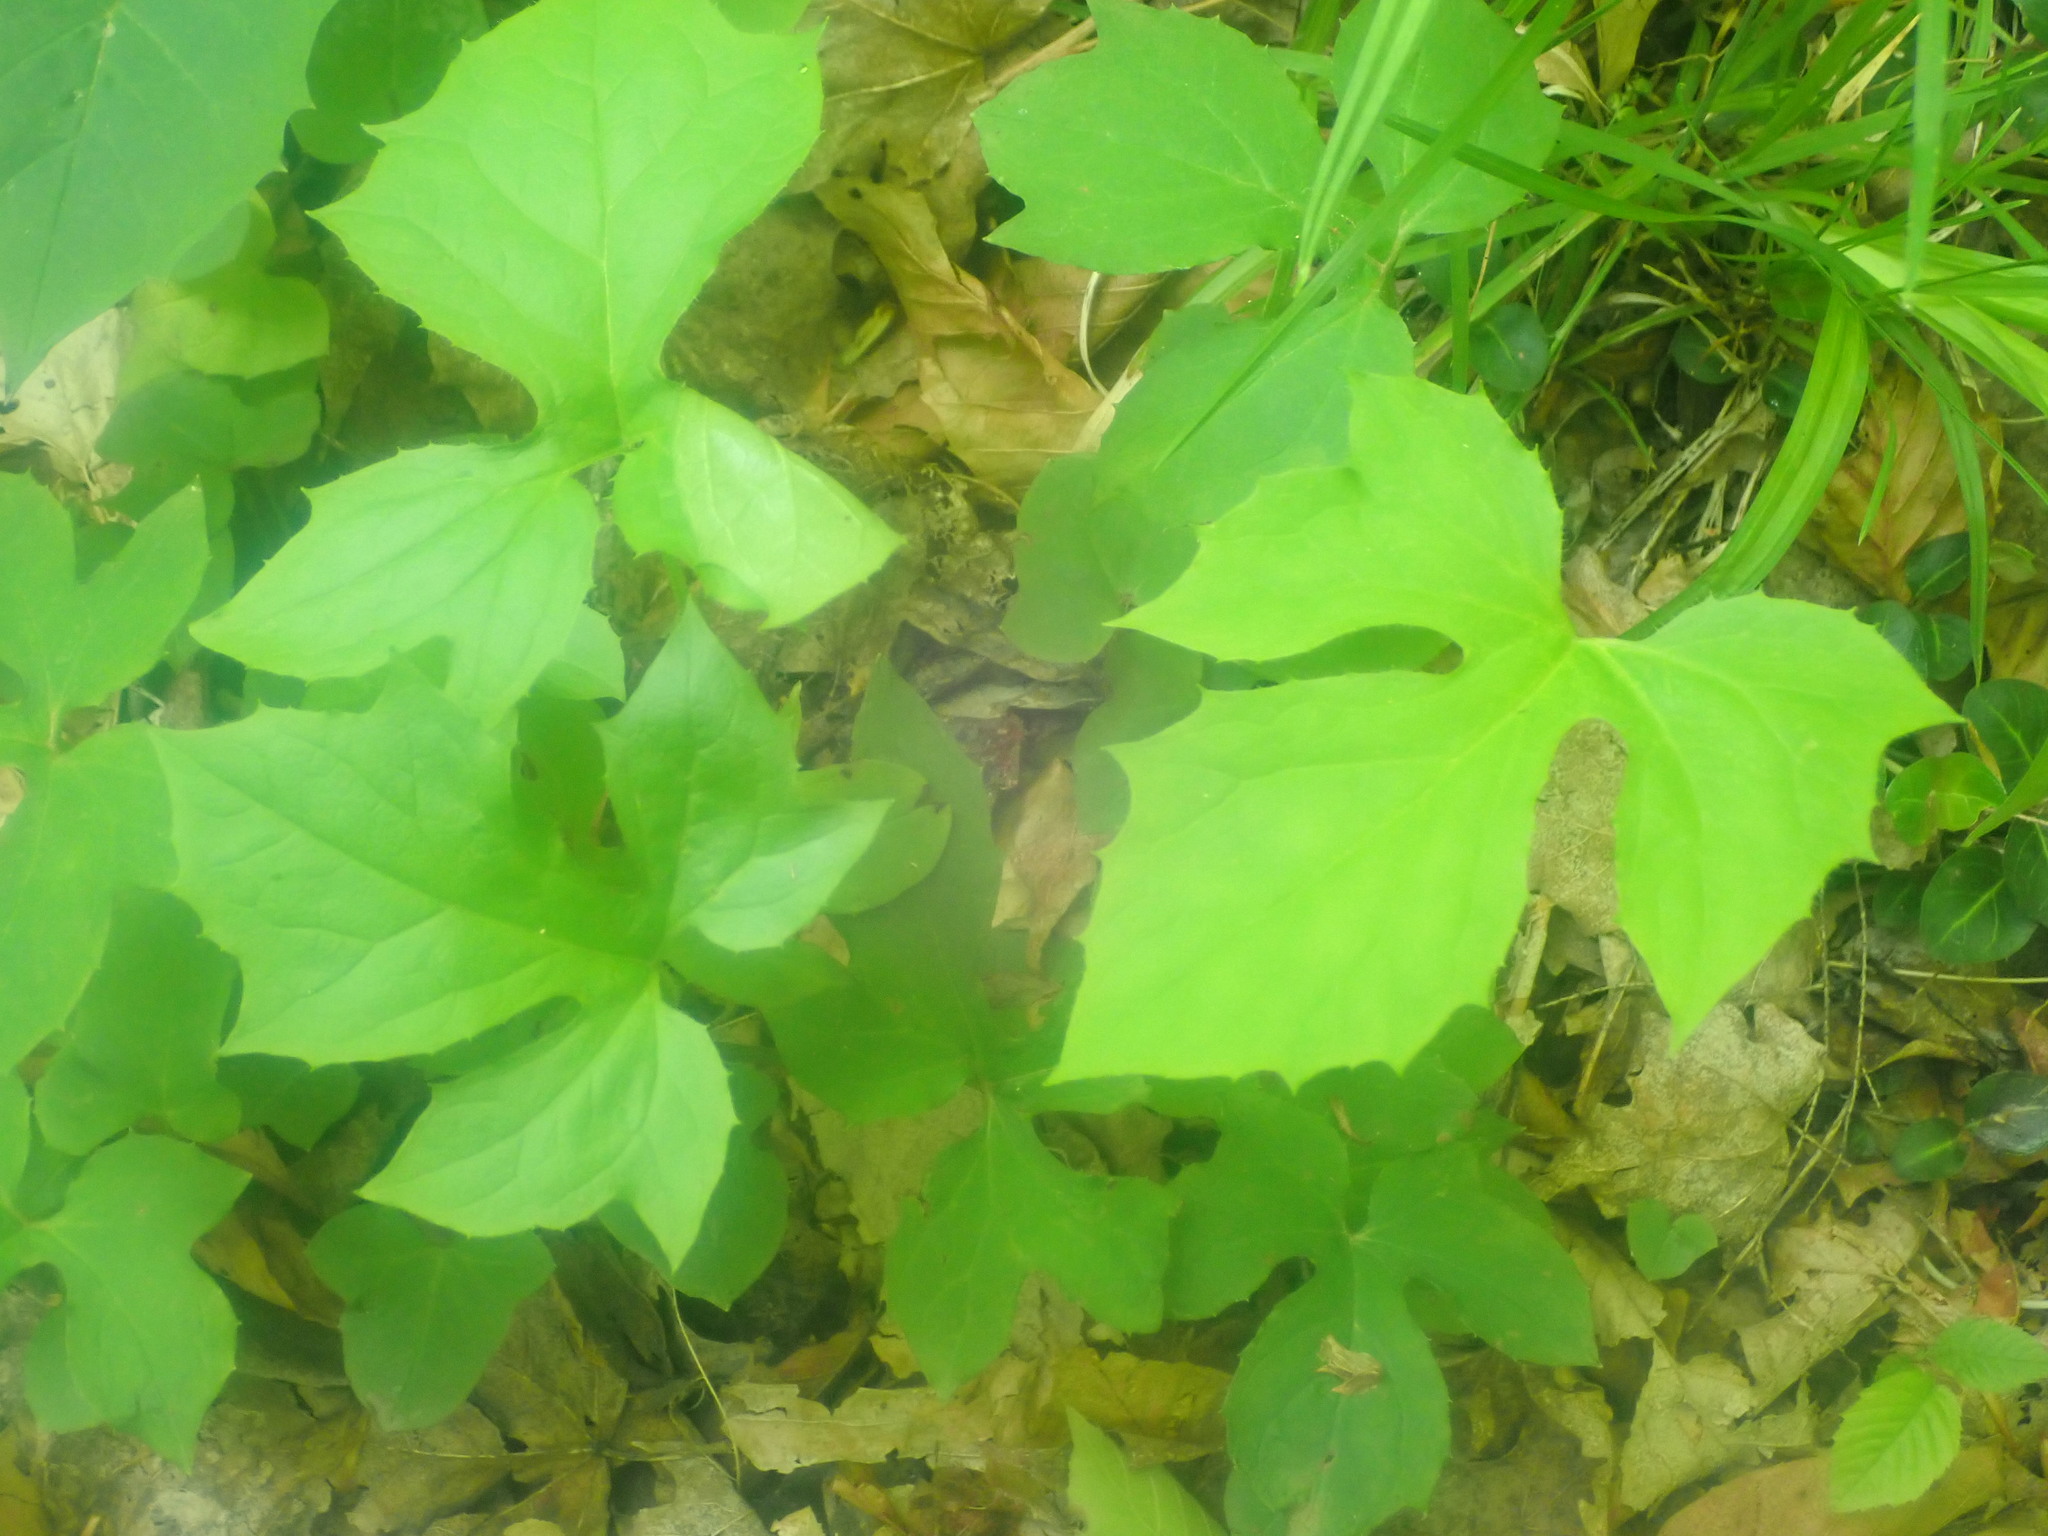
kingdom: Plantae
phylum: Tracheophyta
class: Magnoliopsida
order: Asterales
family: Asteraceae
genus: Nabalus
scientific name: Nabalus
